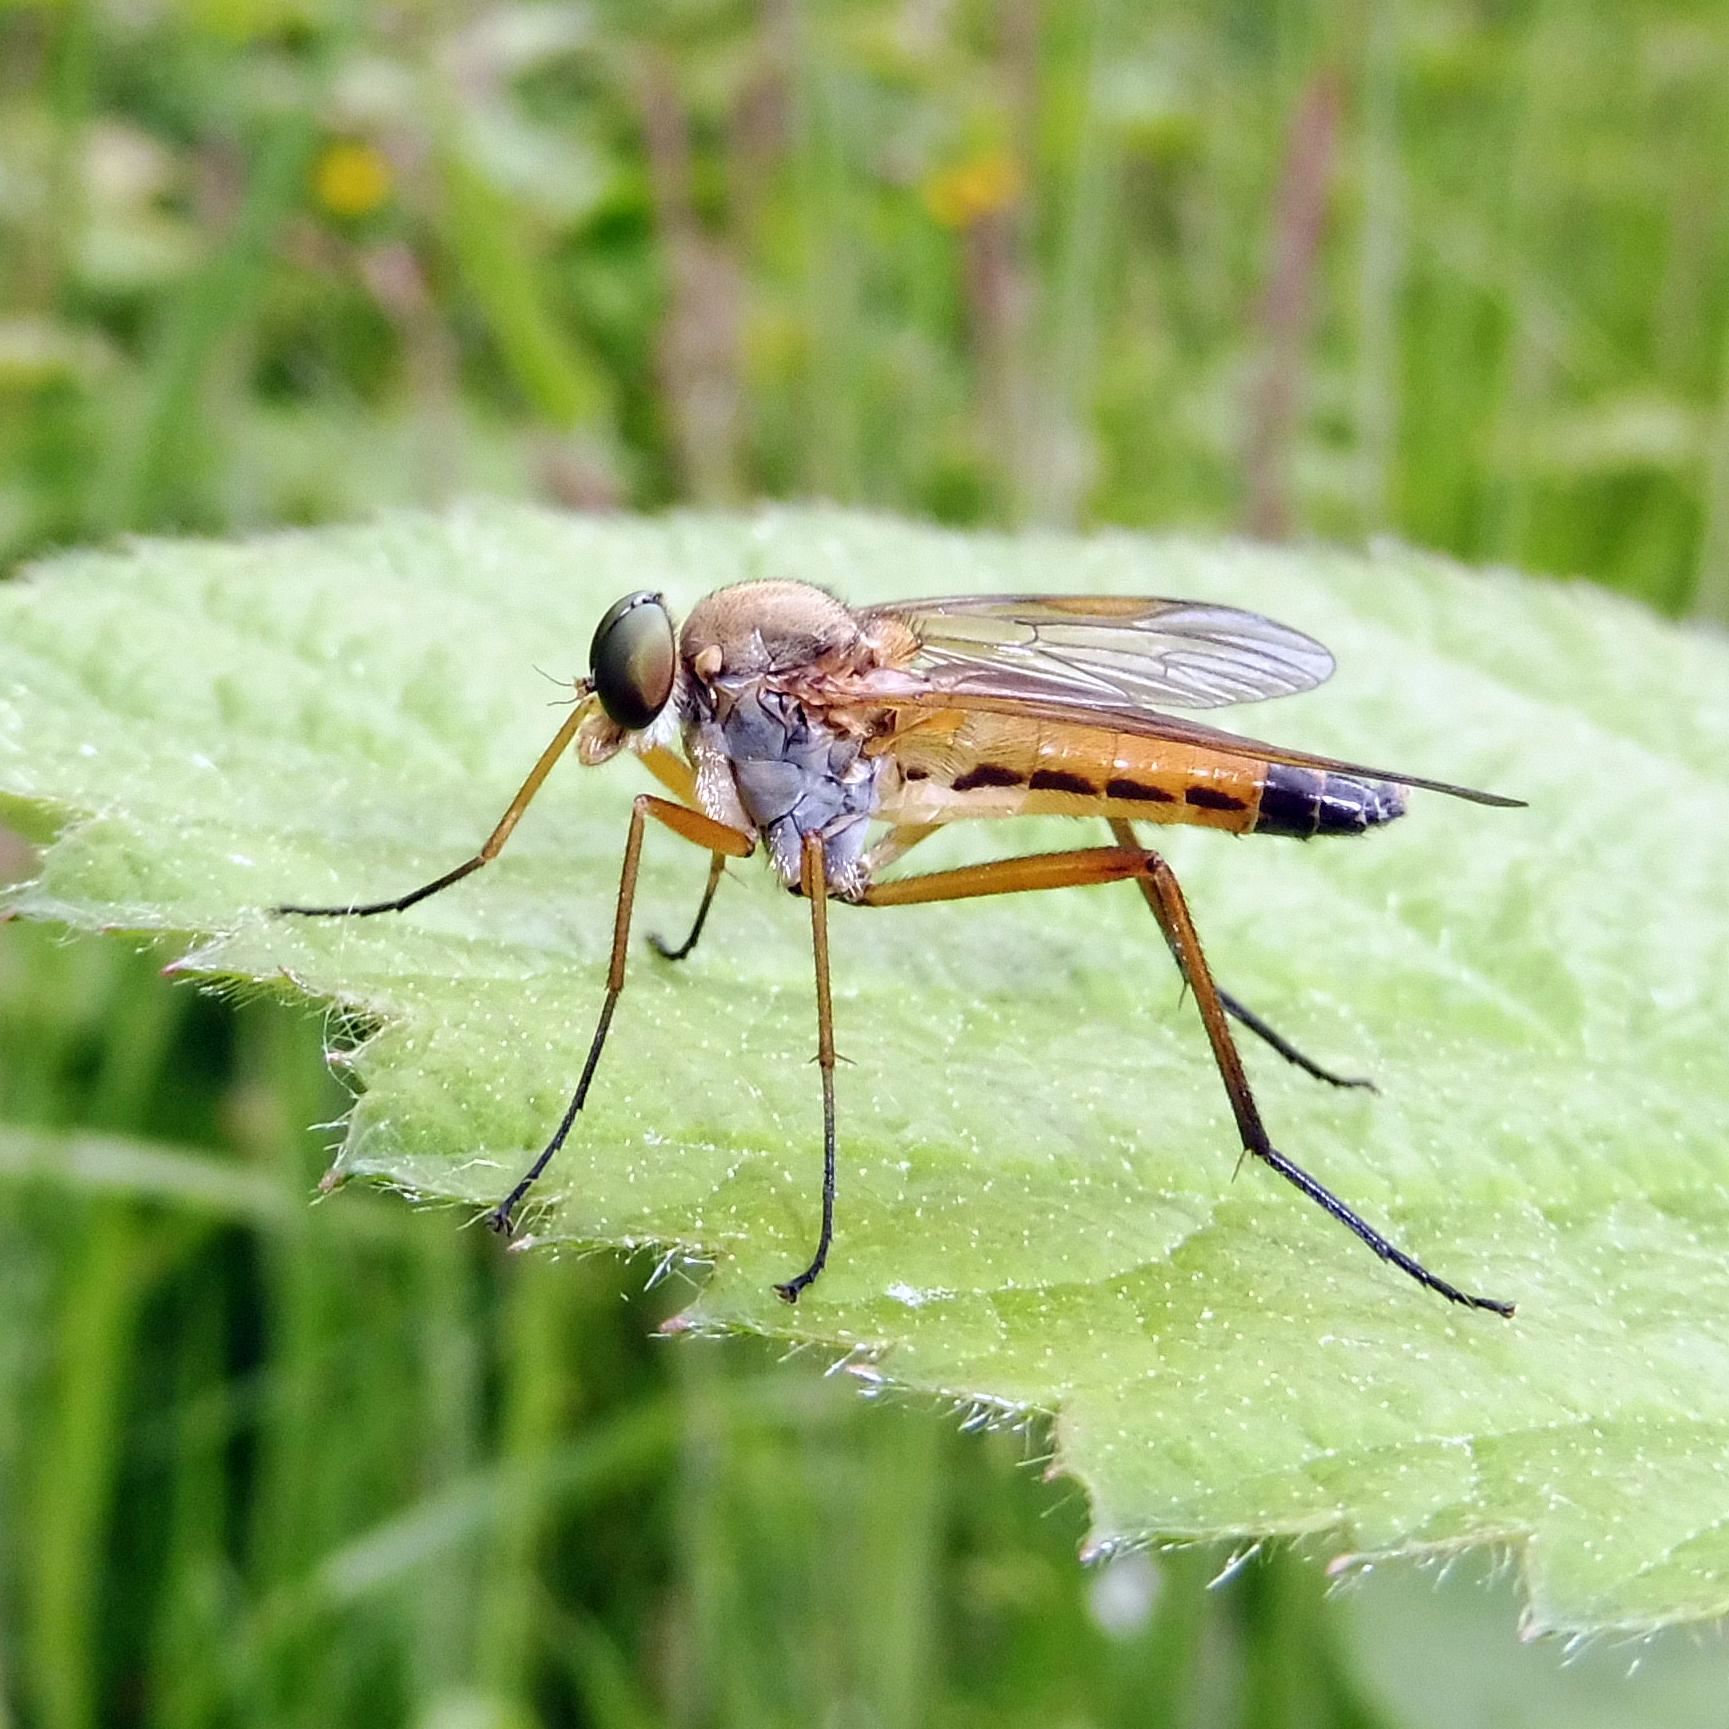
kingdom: Animalia
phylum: Arthropoda
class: Insecta
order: Diptera
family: Rhagionidae
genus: Rhagio
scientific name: Rhagio tringaria
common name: Marsh snipefly
